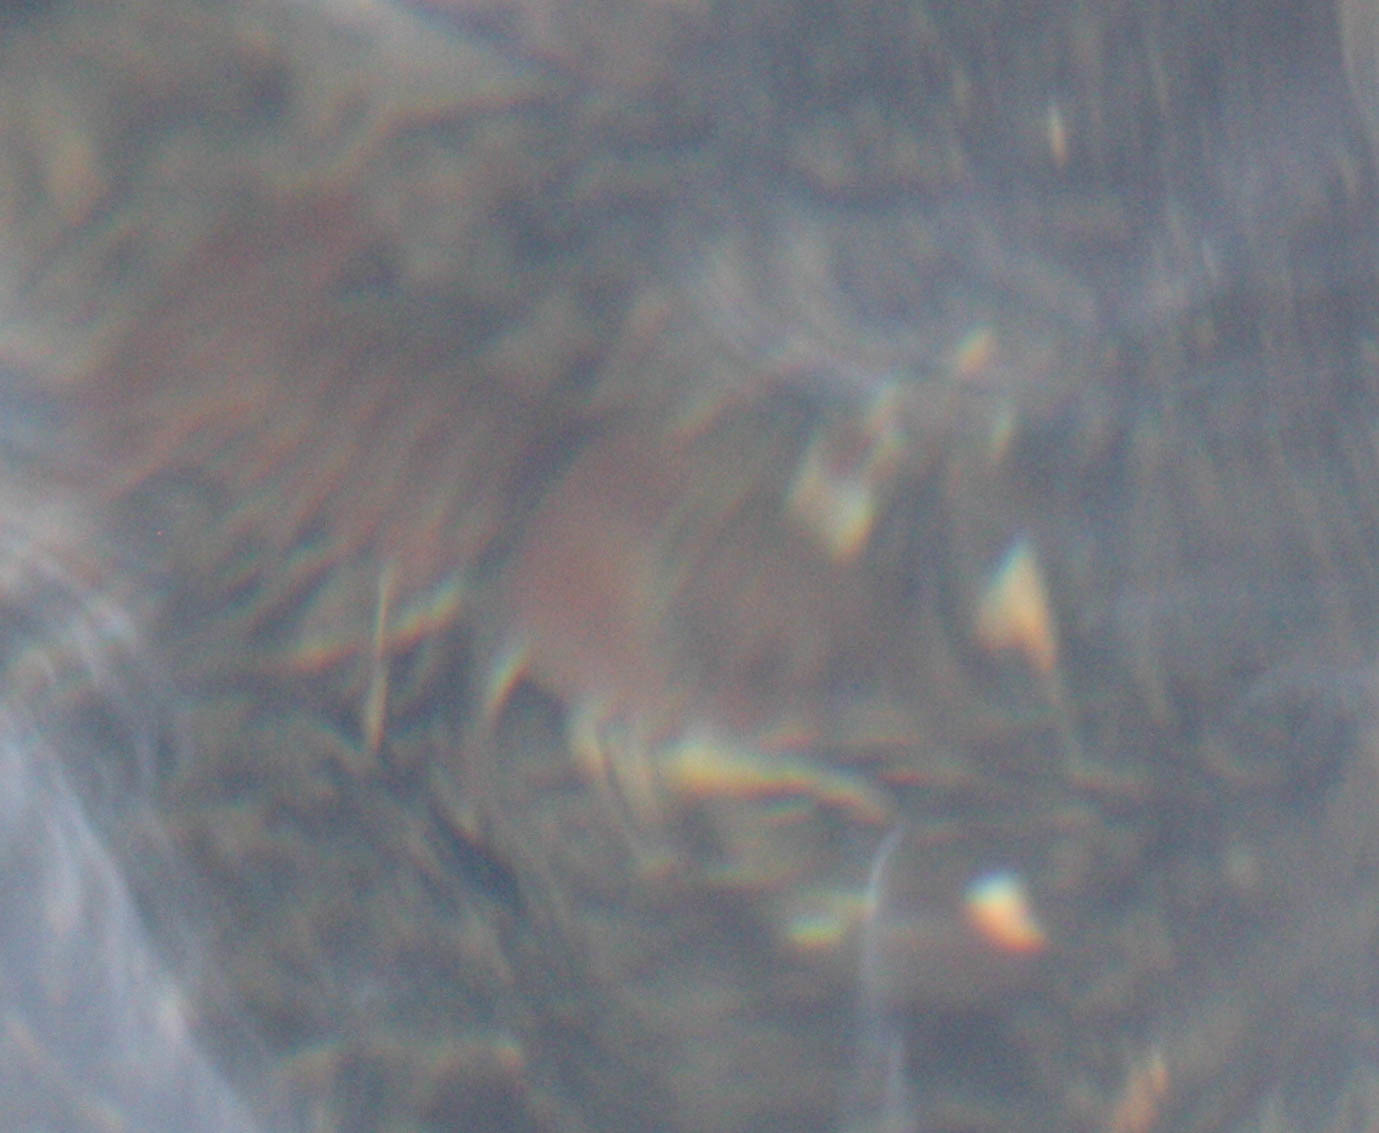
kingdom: Animalia
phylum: Arthropoda
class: Malacostraca
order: Decapoda
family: Astacidae
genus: Pacifastacus
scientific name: Pacifastacus leniusculus
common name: Signal crayfish
